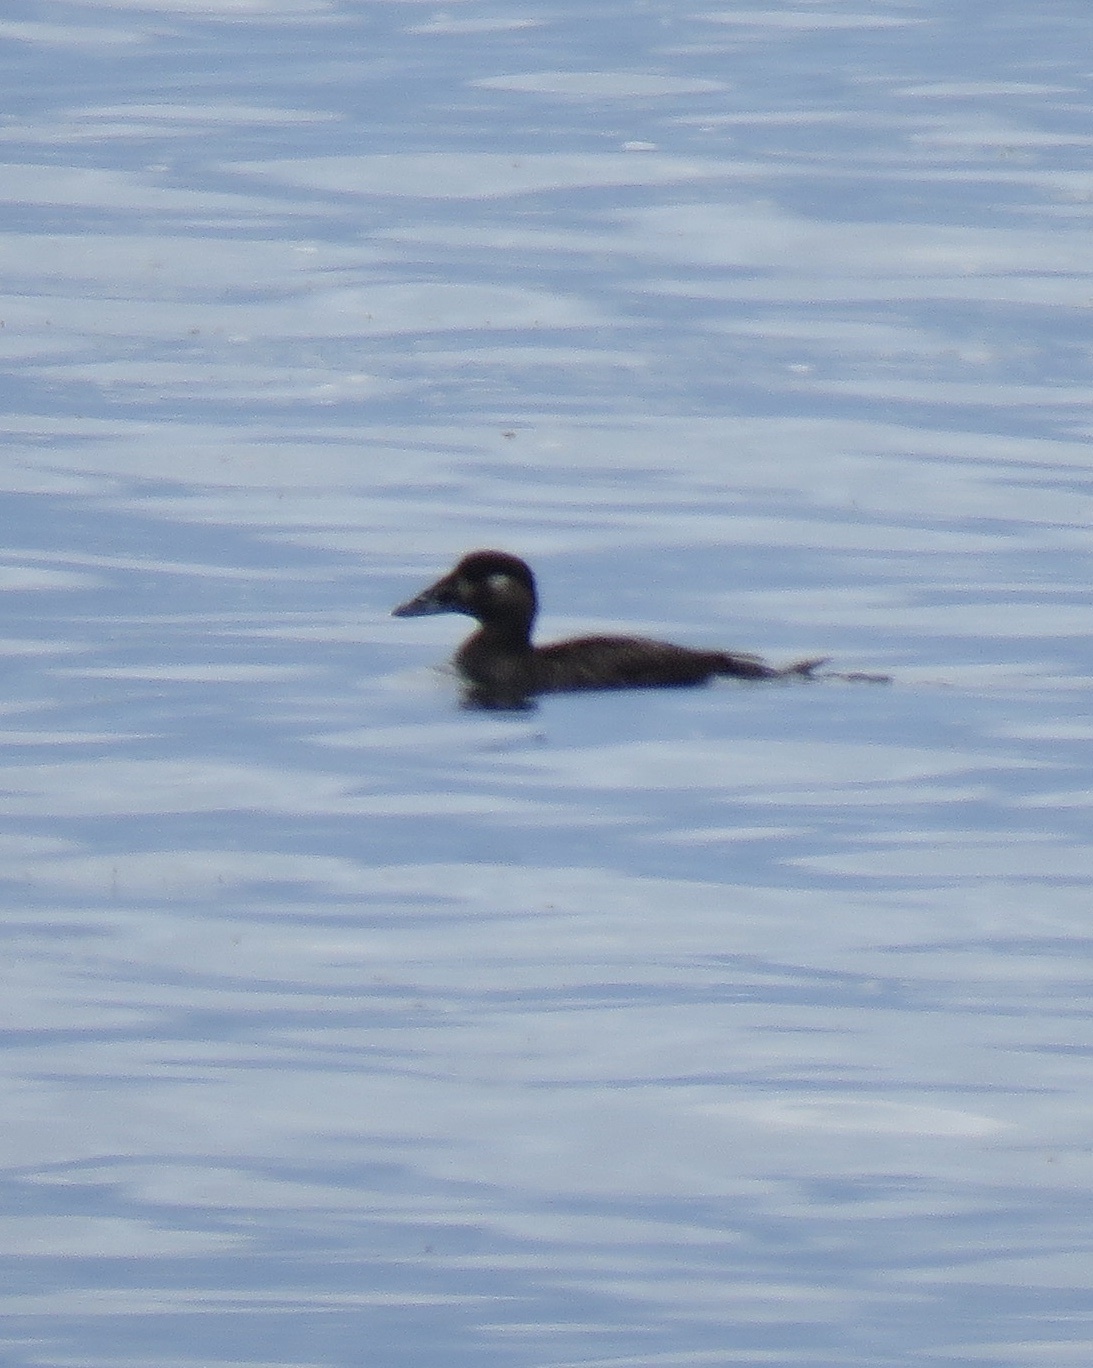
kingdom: Animalia
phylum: Chordata
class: Aves
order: Anseriformes
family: Anatidae
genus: Melanitta
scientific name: Melanitta perspicillata
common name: Surf scoter
